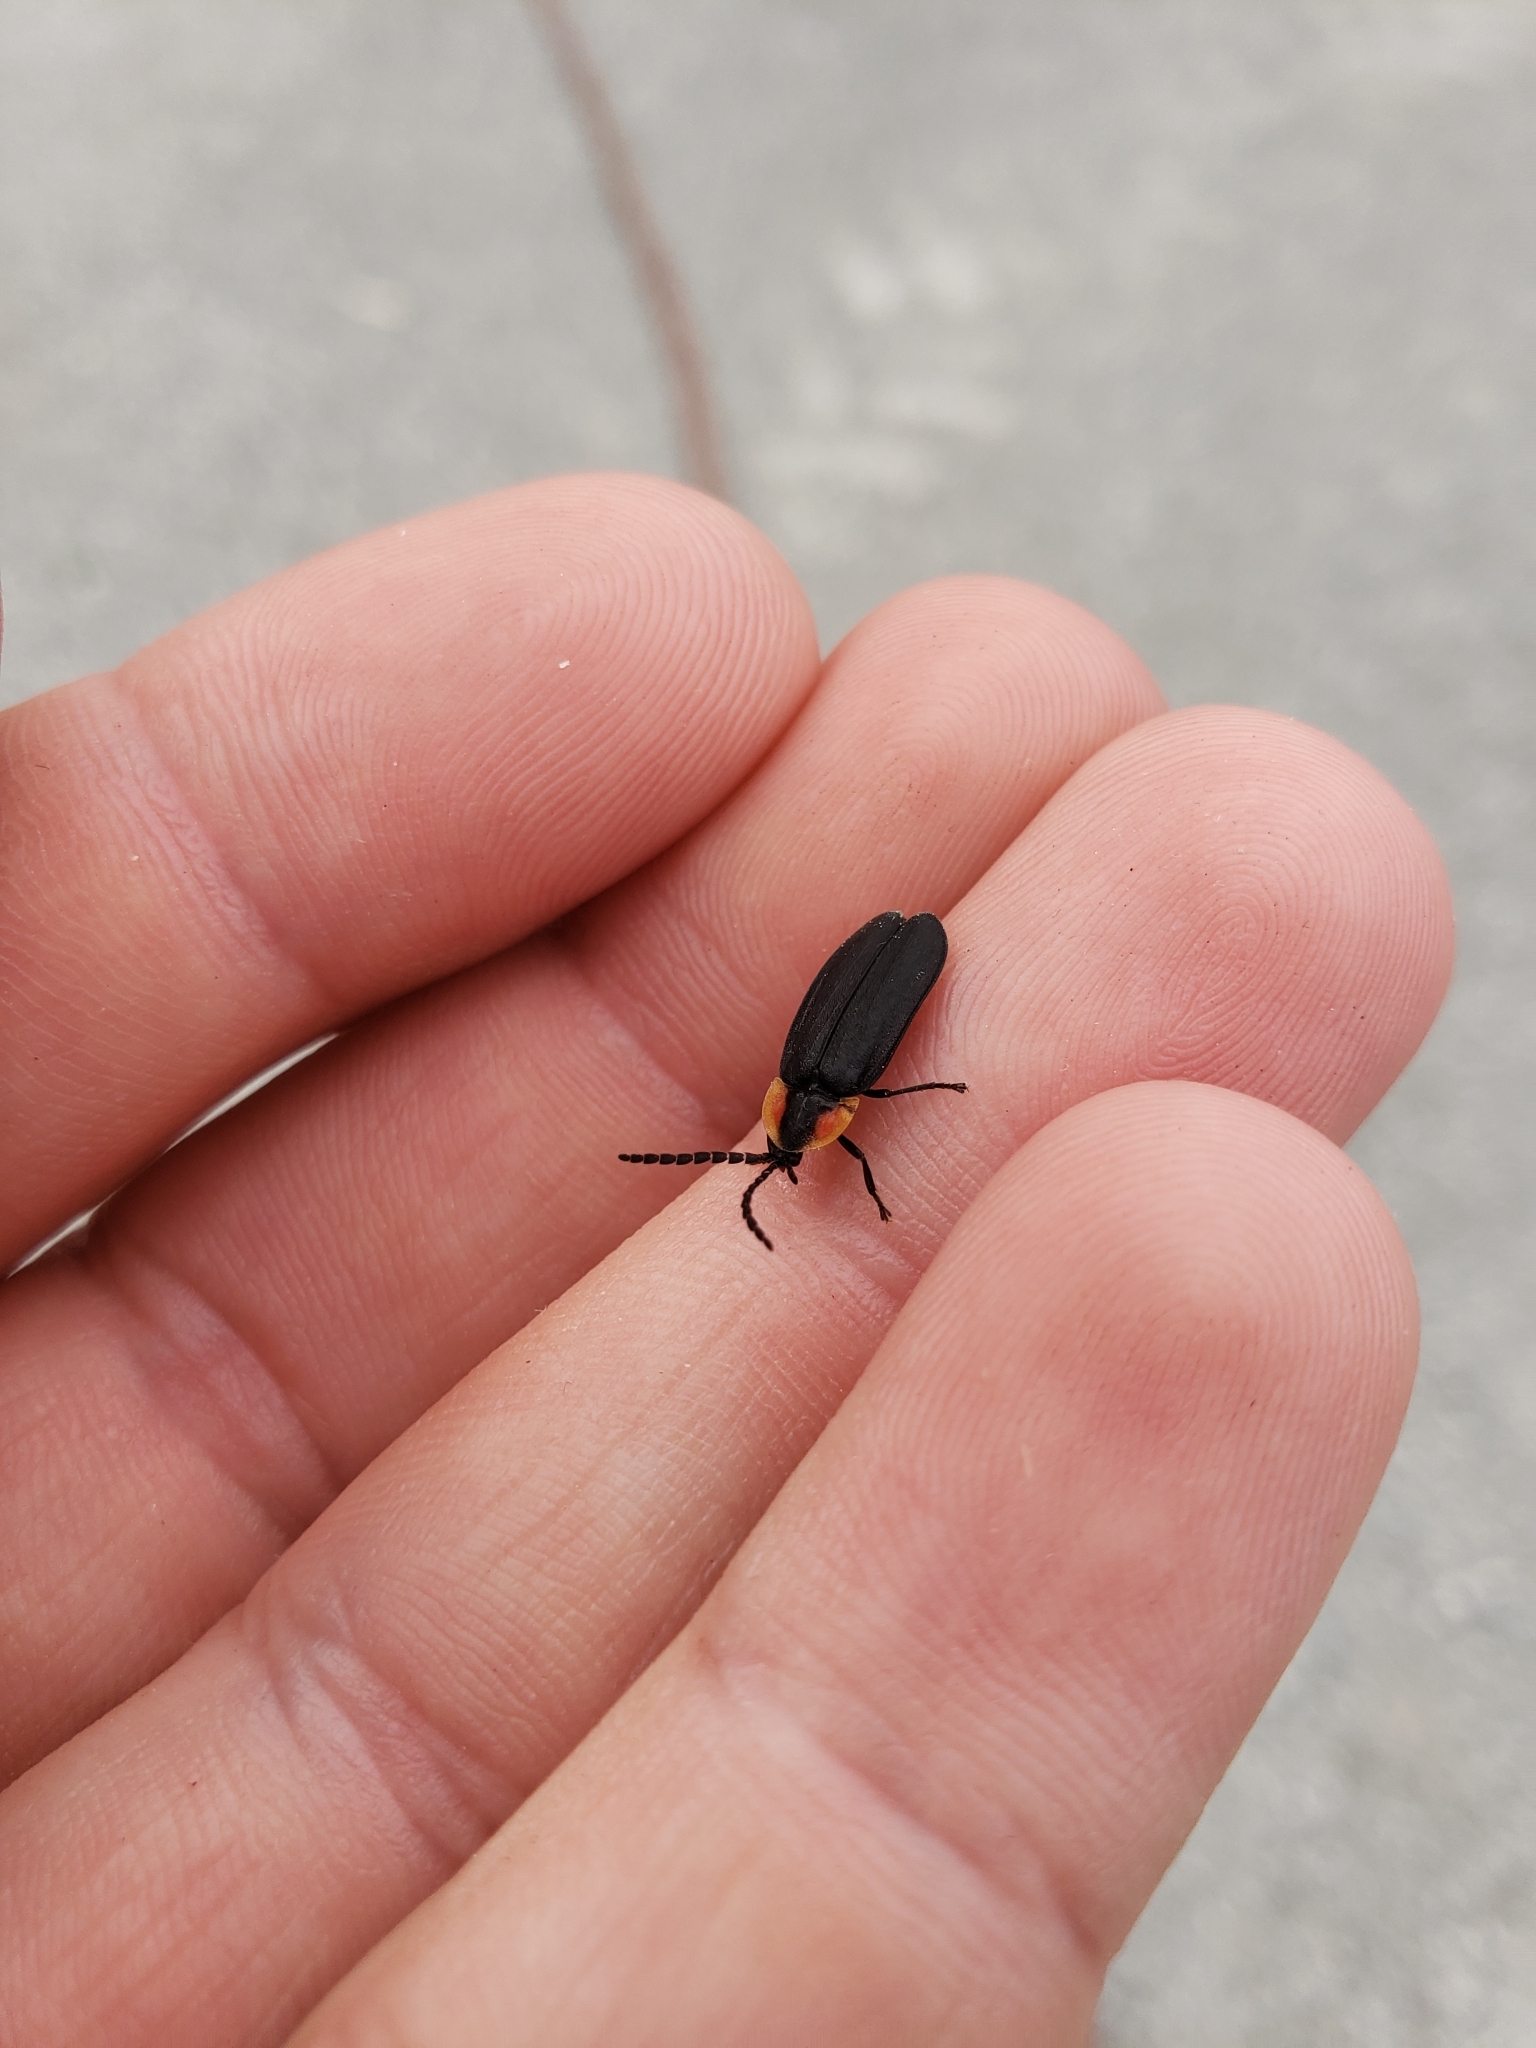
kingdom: Animalia
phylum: Arthropoda
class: Insecta
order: Coleoptera
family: Lampyridae
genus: Lucidota
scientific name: Lucidota atra
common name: Black firefly
